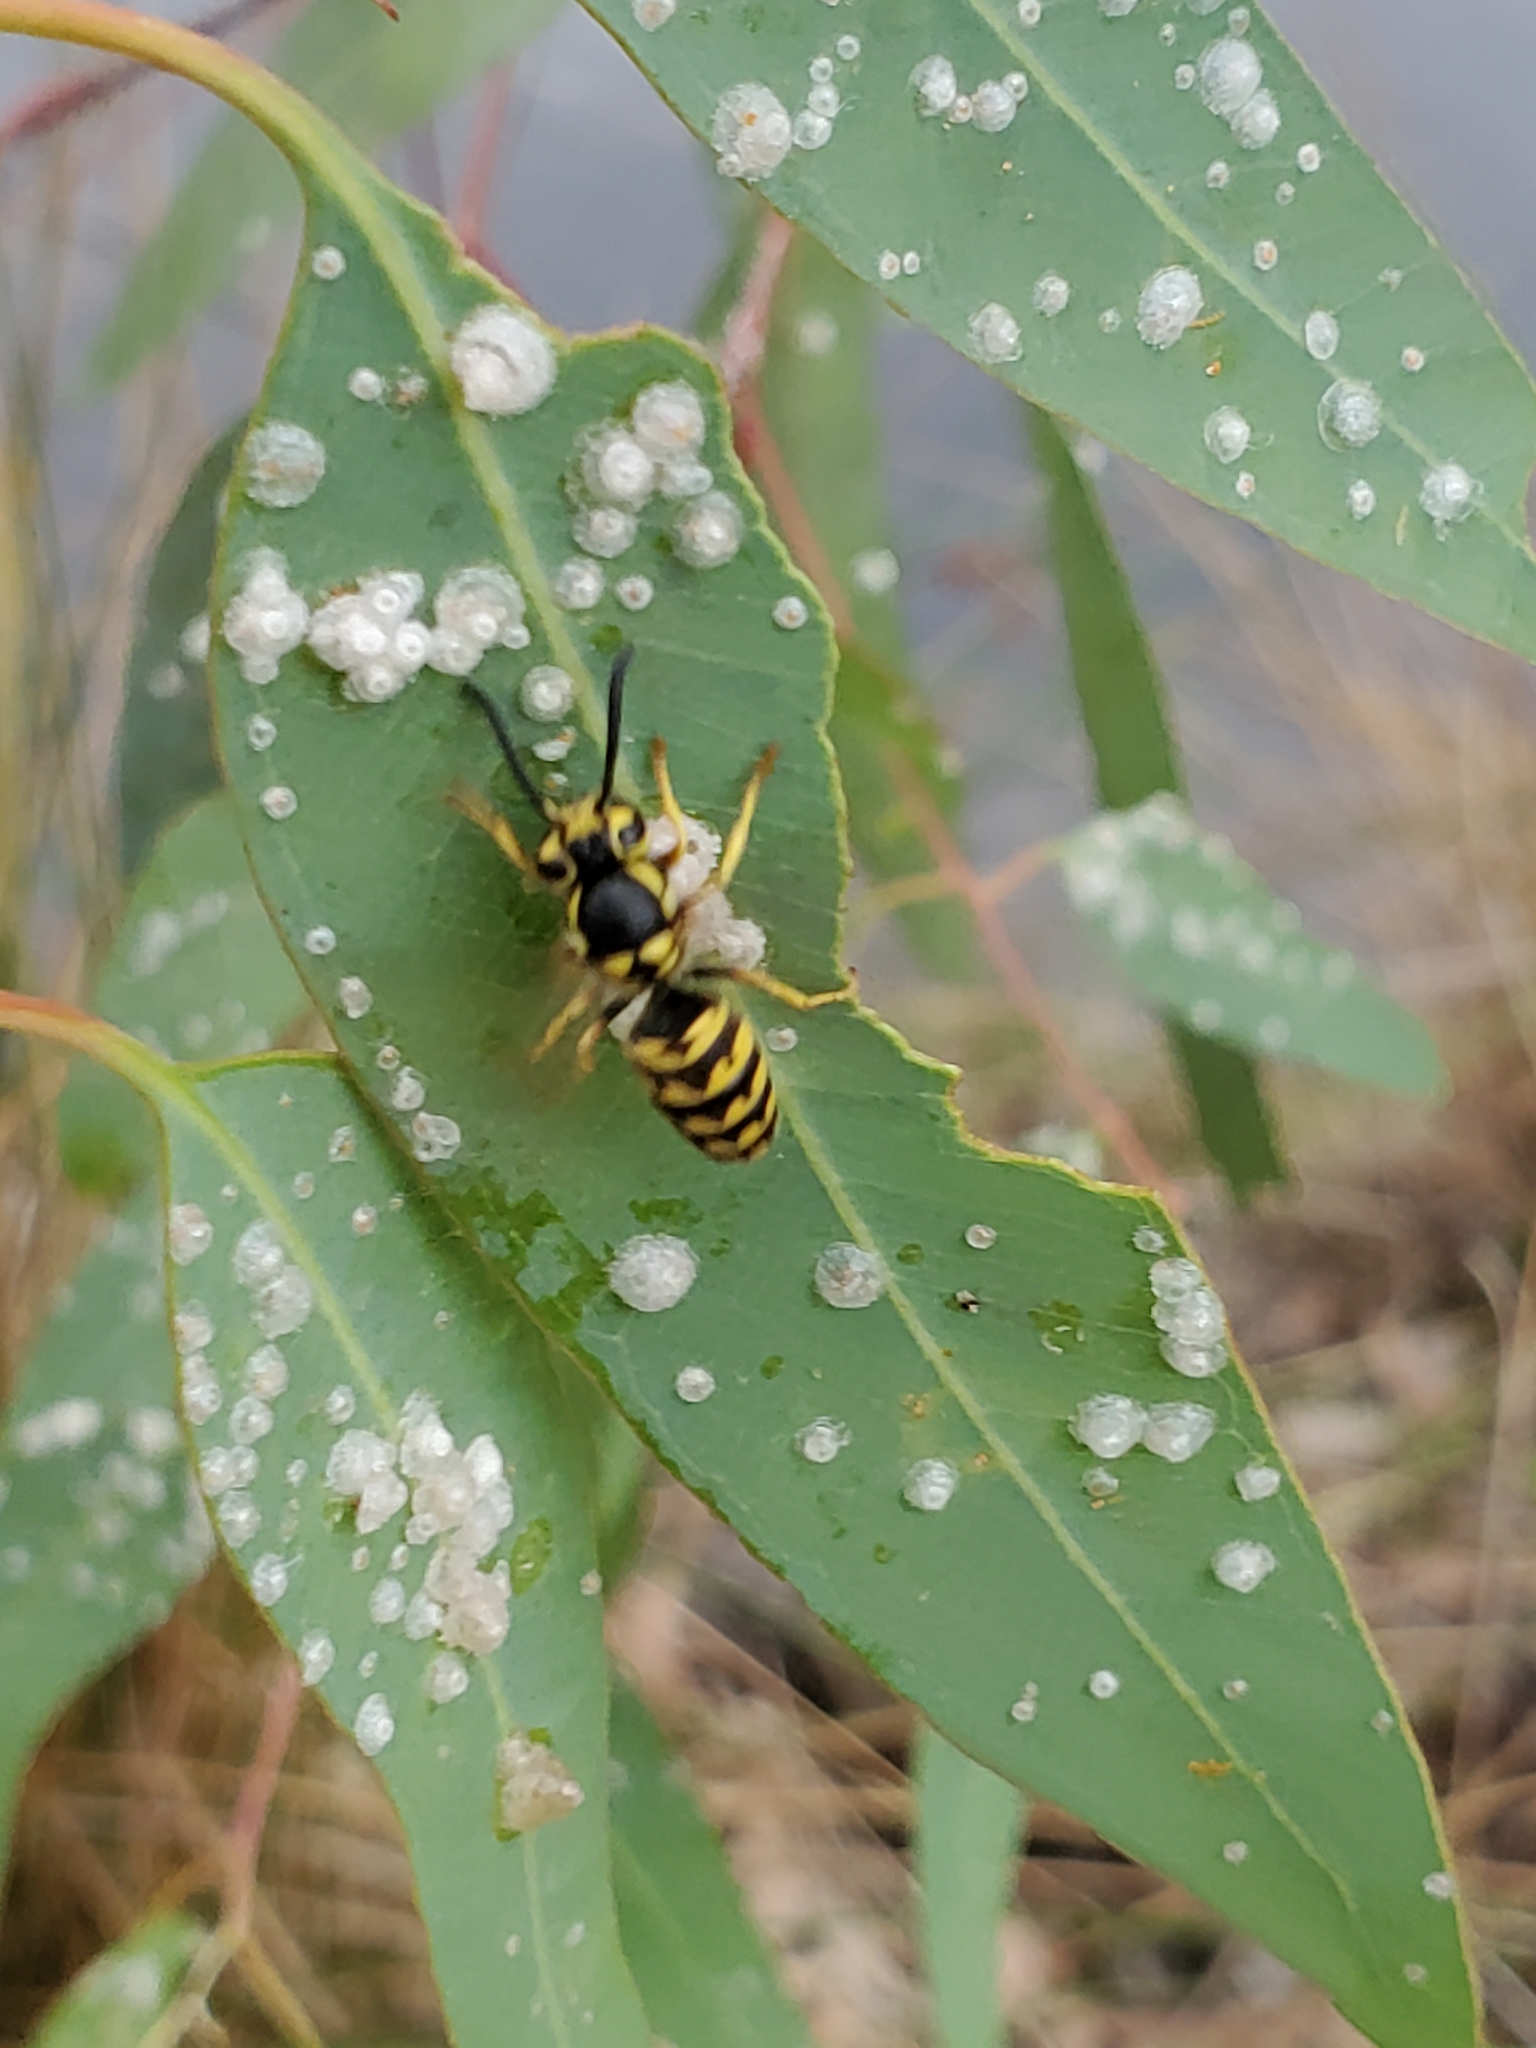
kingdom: Animalia
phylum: Arthropoda
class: Insecta
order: Hymenoptera
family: Vespidae
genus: Vespula
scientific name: Vespula pensylvanica
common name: Western yellowjacket
